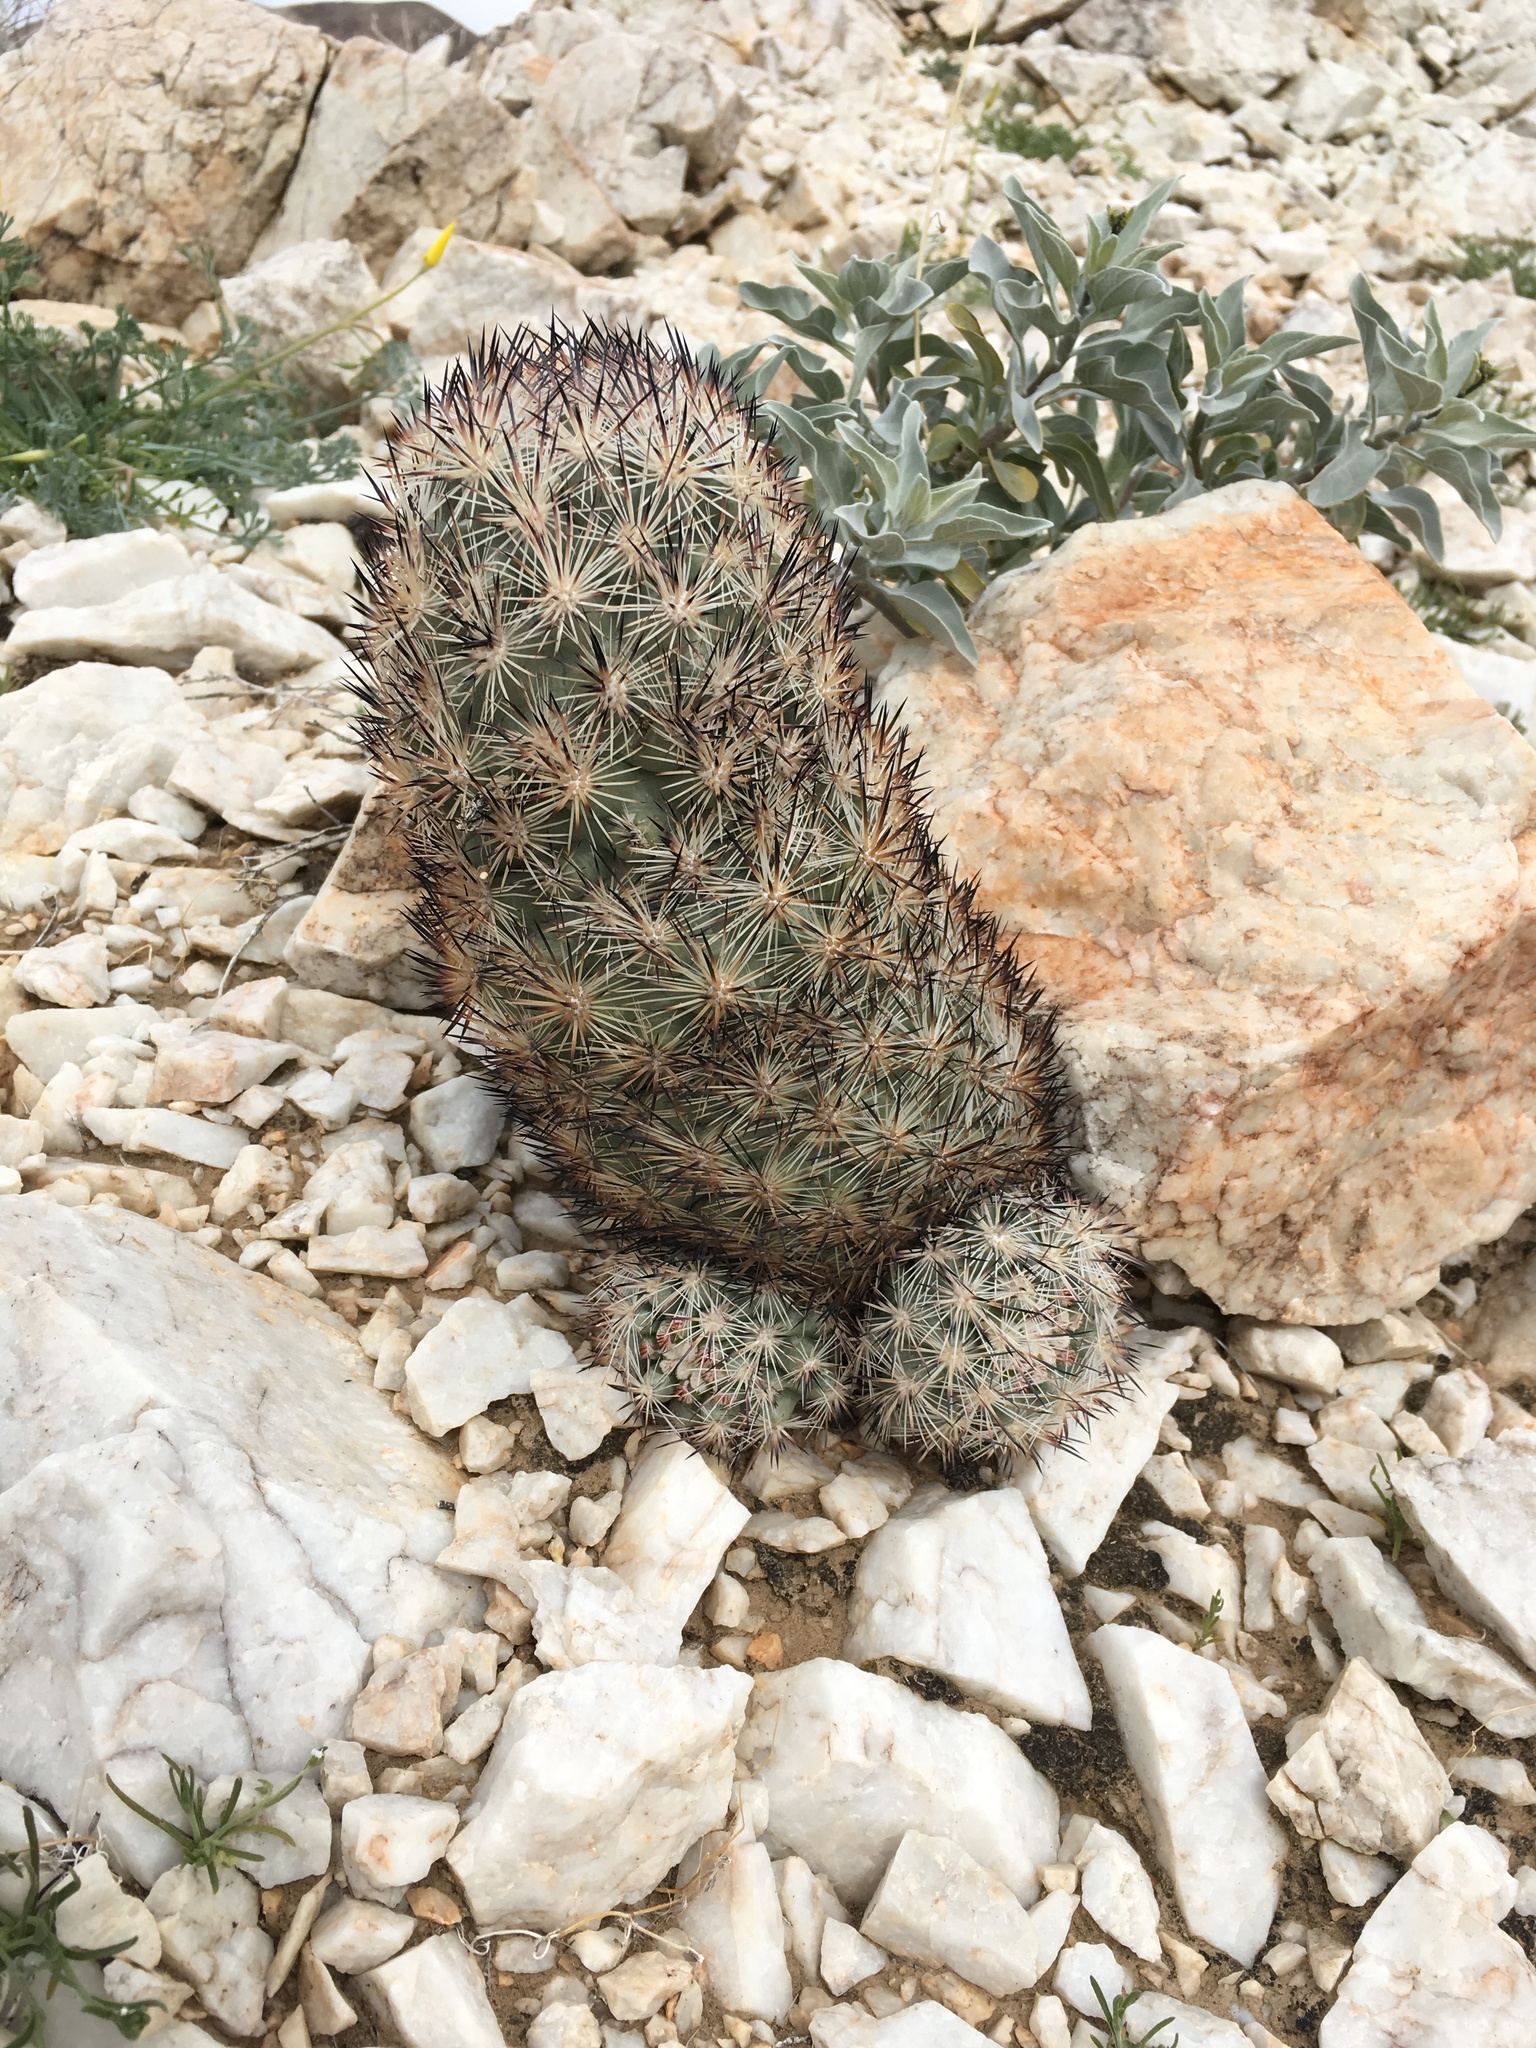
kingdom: Plantae
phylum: Tracheophyta
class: Magnoliopsida
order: Caryophyllales
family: Cactaceae
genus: Pelecyphora
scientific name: Pelecyphora alversonii
